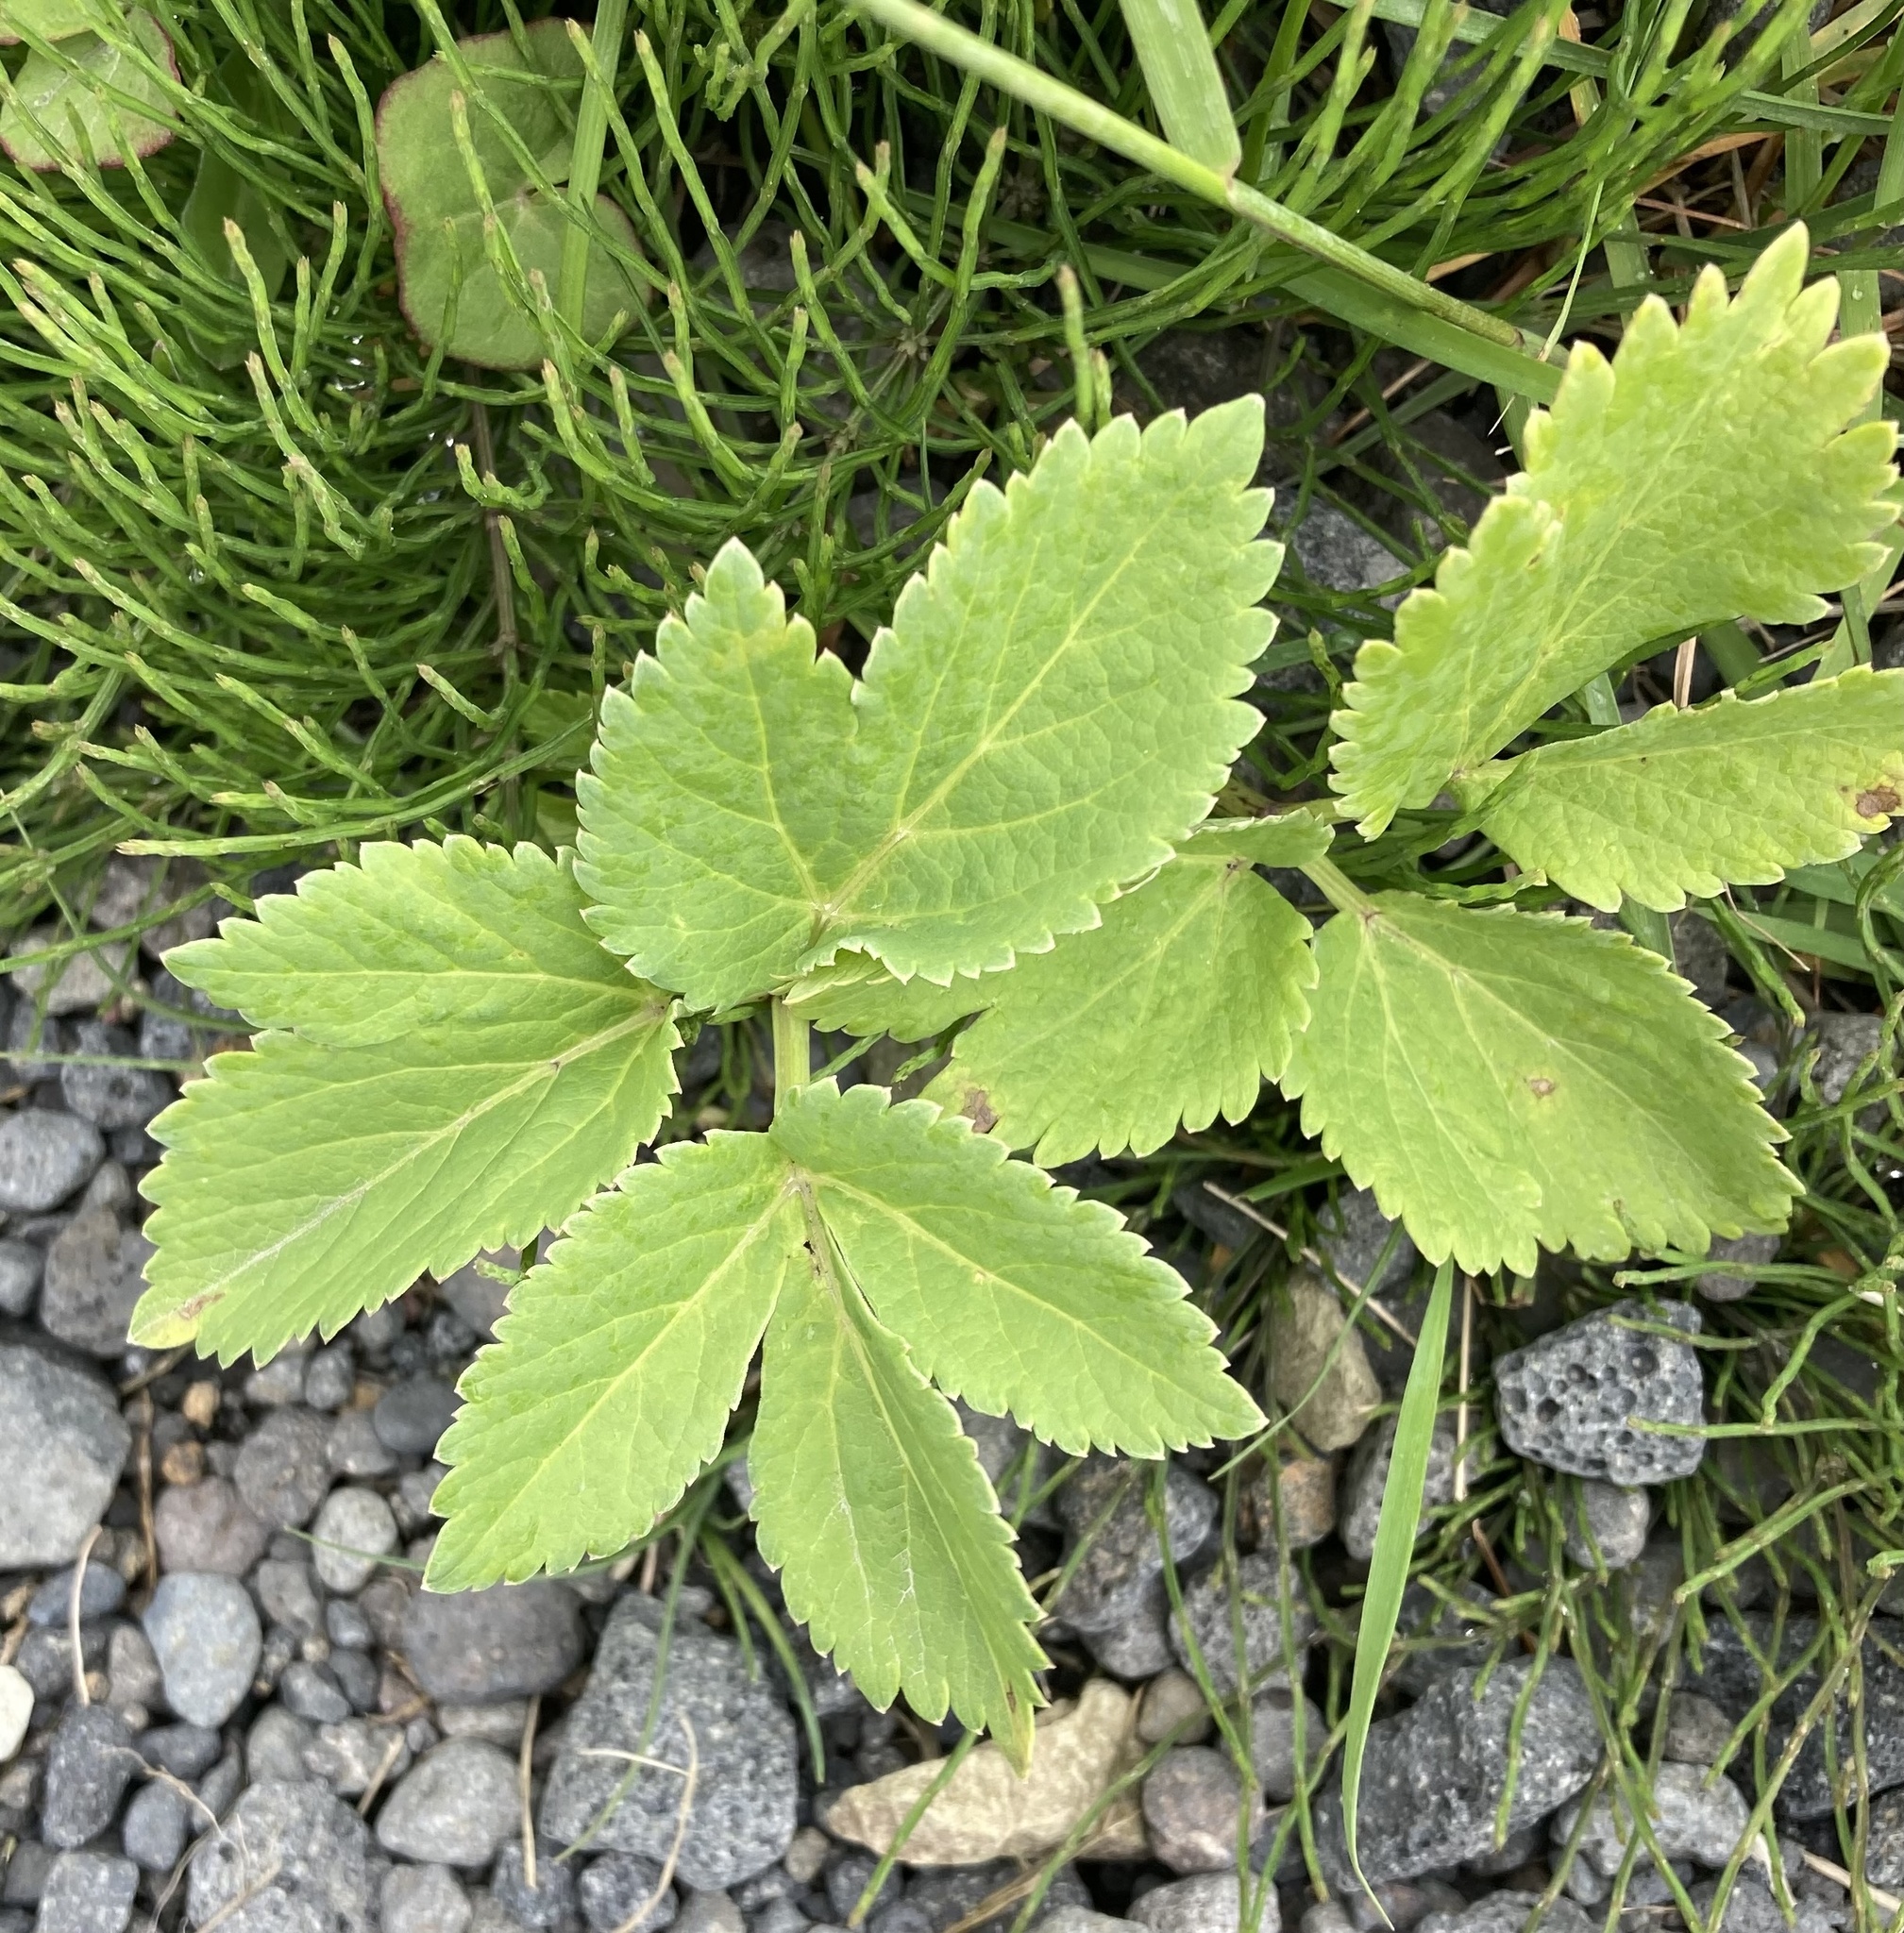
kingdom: Plantae
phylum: Tracheophyta
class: Magnoliopsida
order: Apiales
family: Apiaceae
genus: Angelica
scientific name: Angelica archangelica
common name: Garden angelica
